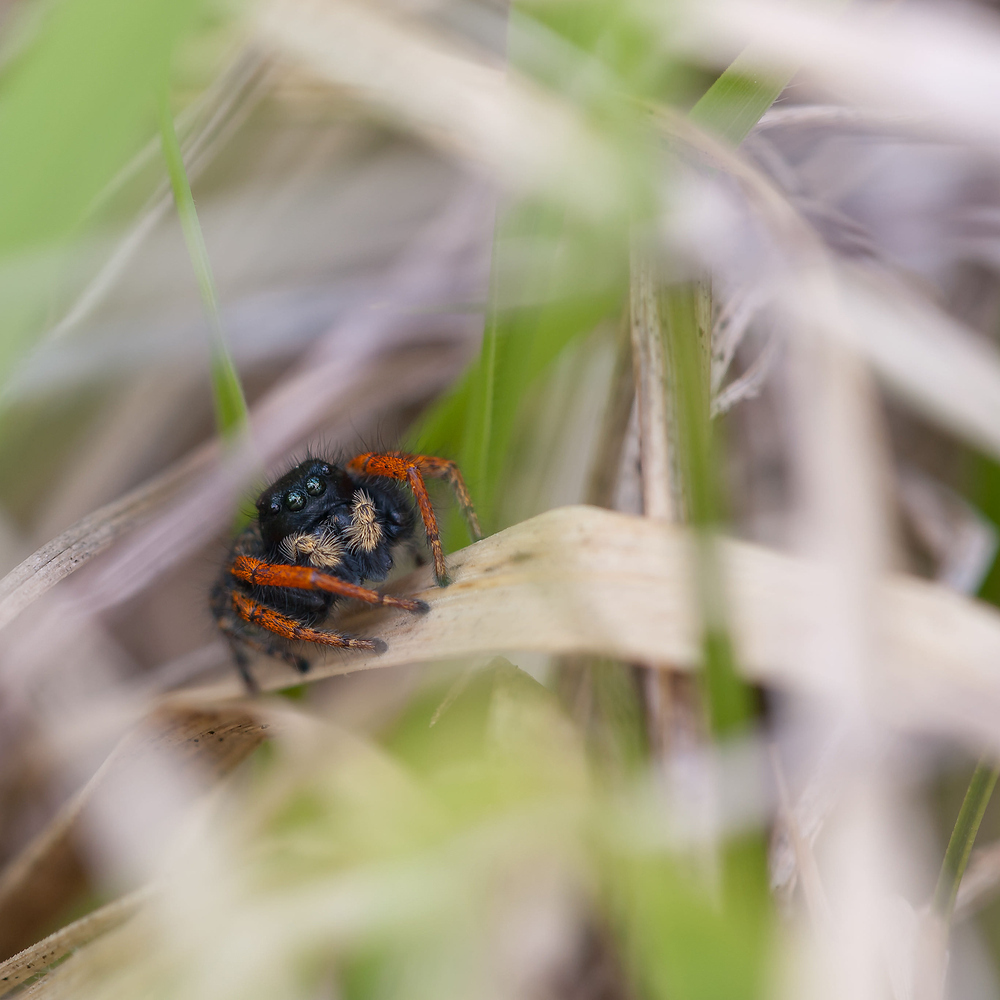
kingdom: Animalia
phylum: Arthropoda
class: Arachnida
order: Araneae
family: Salticidae
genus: Philaeus
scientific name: Philaeus chrysops
